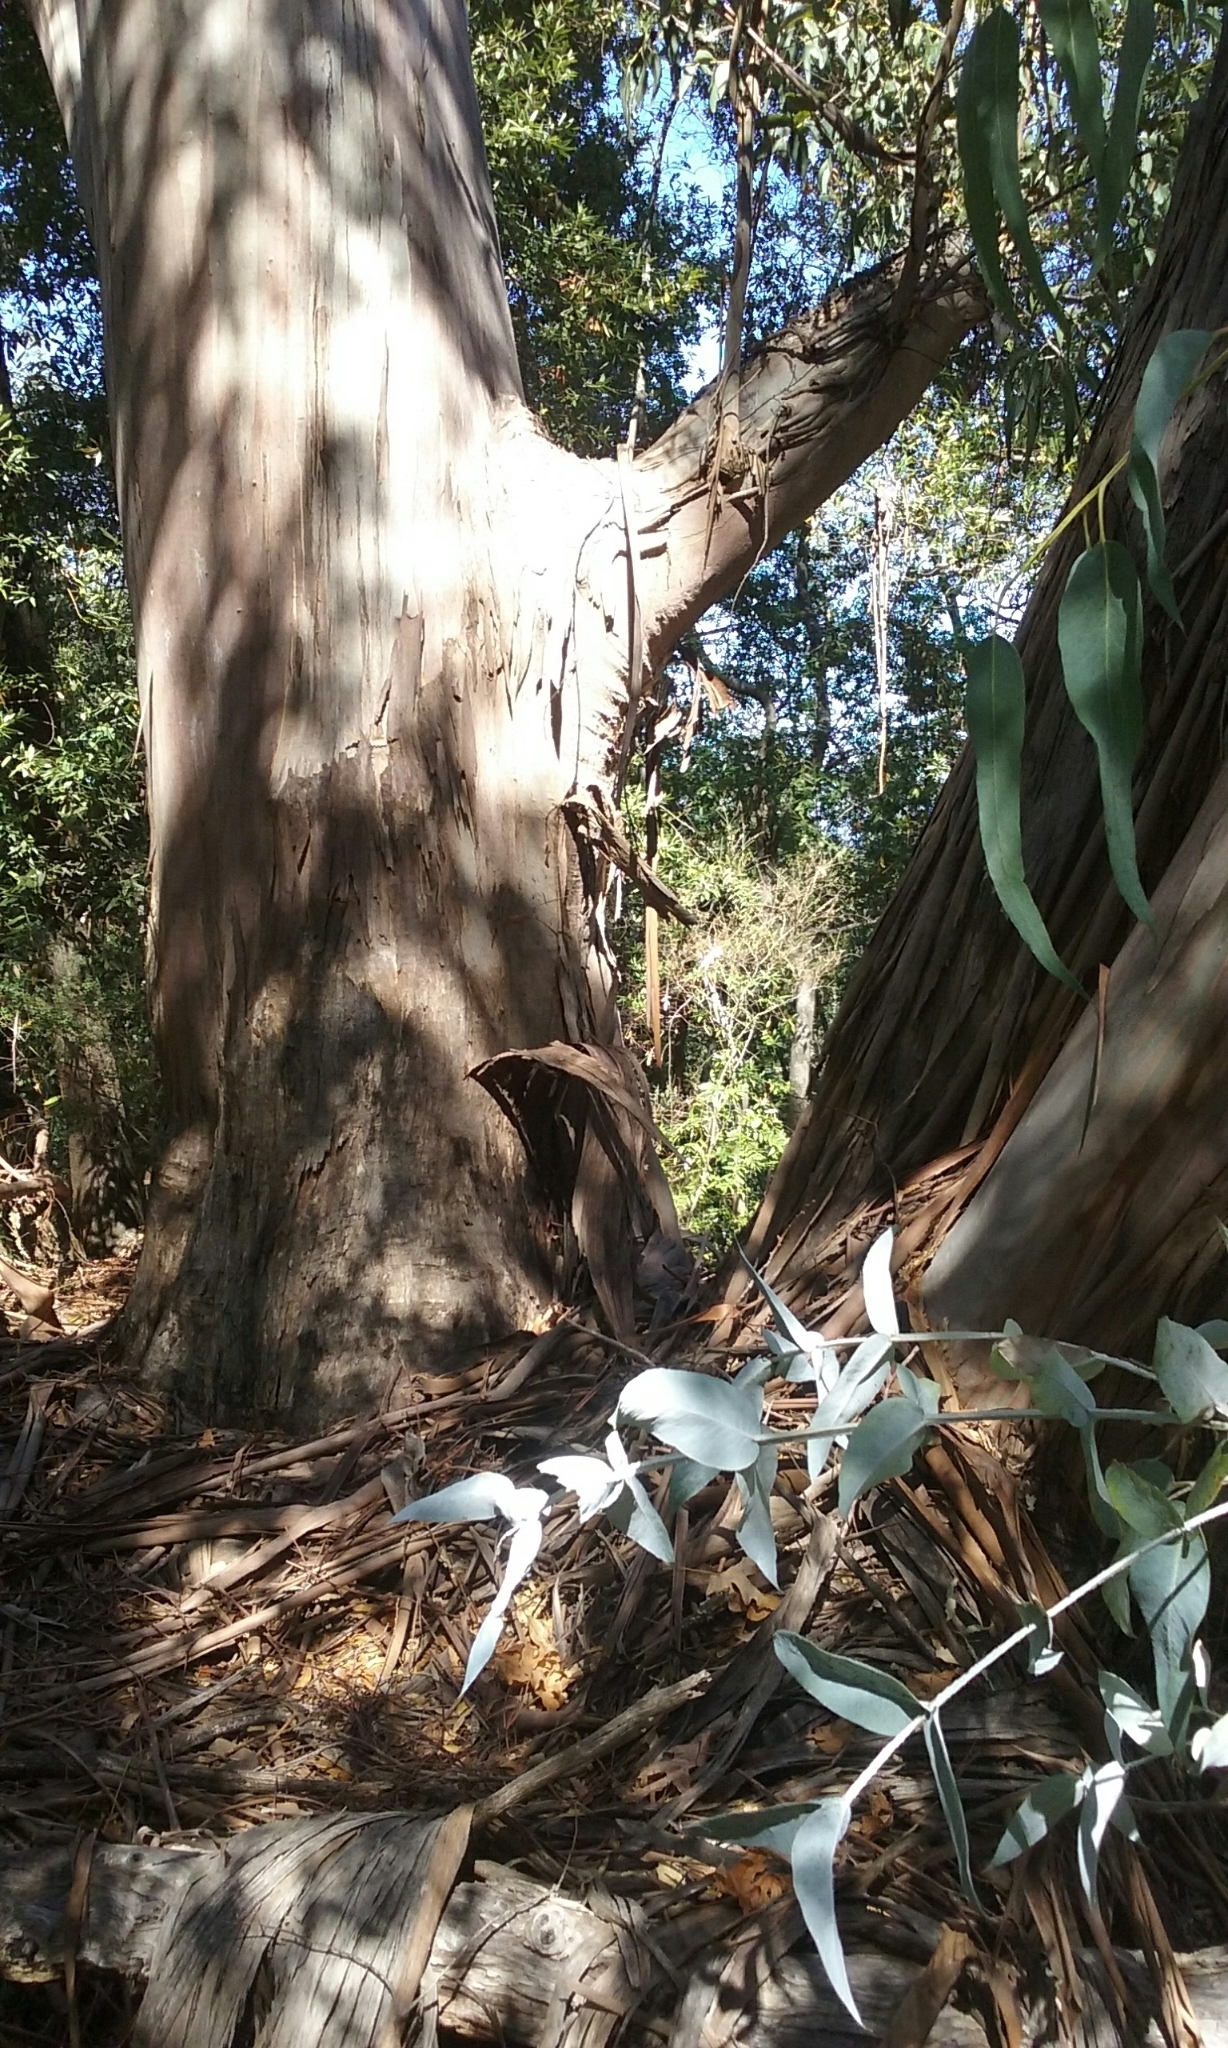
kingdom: Plantae
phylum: Tracheophyta
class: Magnoliopsida
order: Myrtales
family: Myrtaceae
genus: Eucalyptus
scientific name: Eucalyptus globulus
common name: Southern blue-gum
